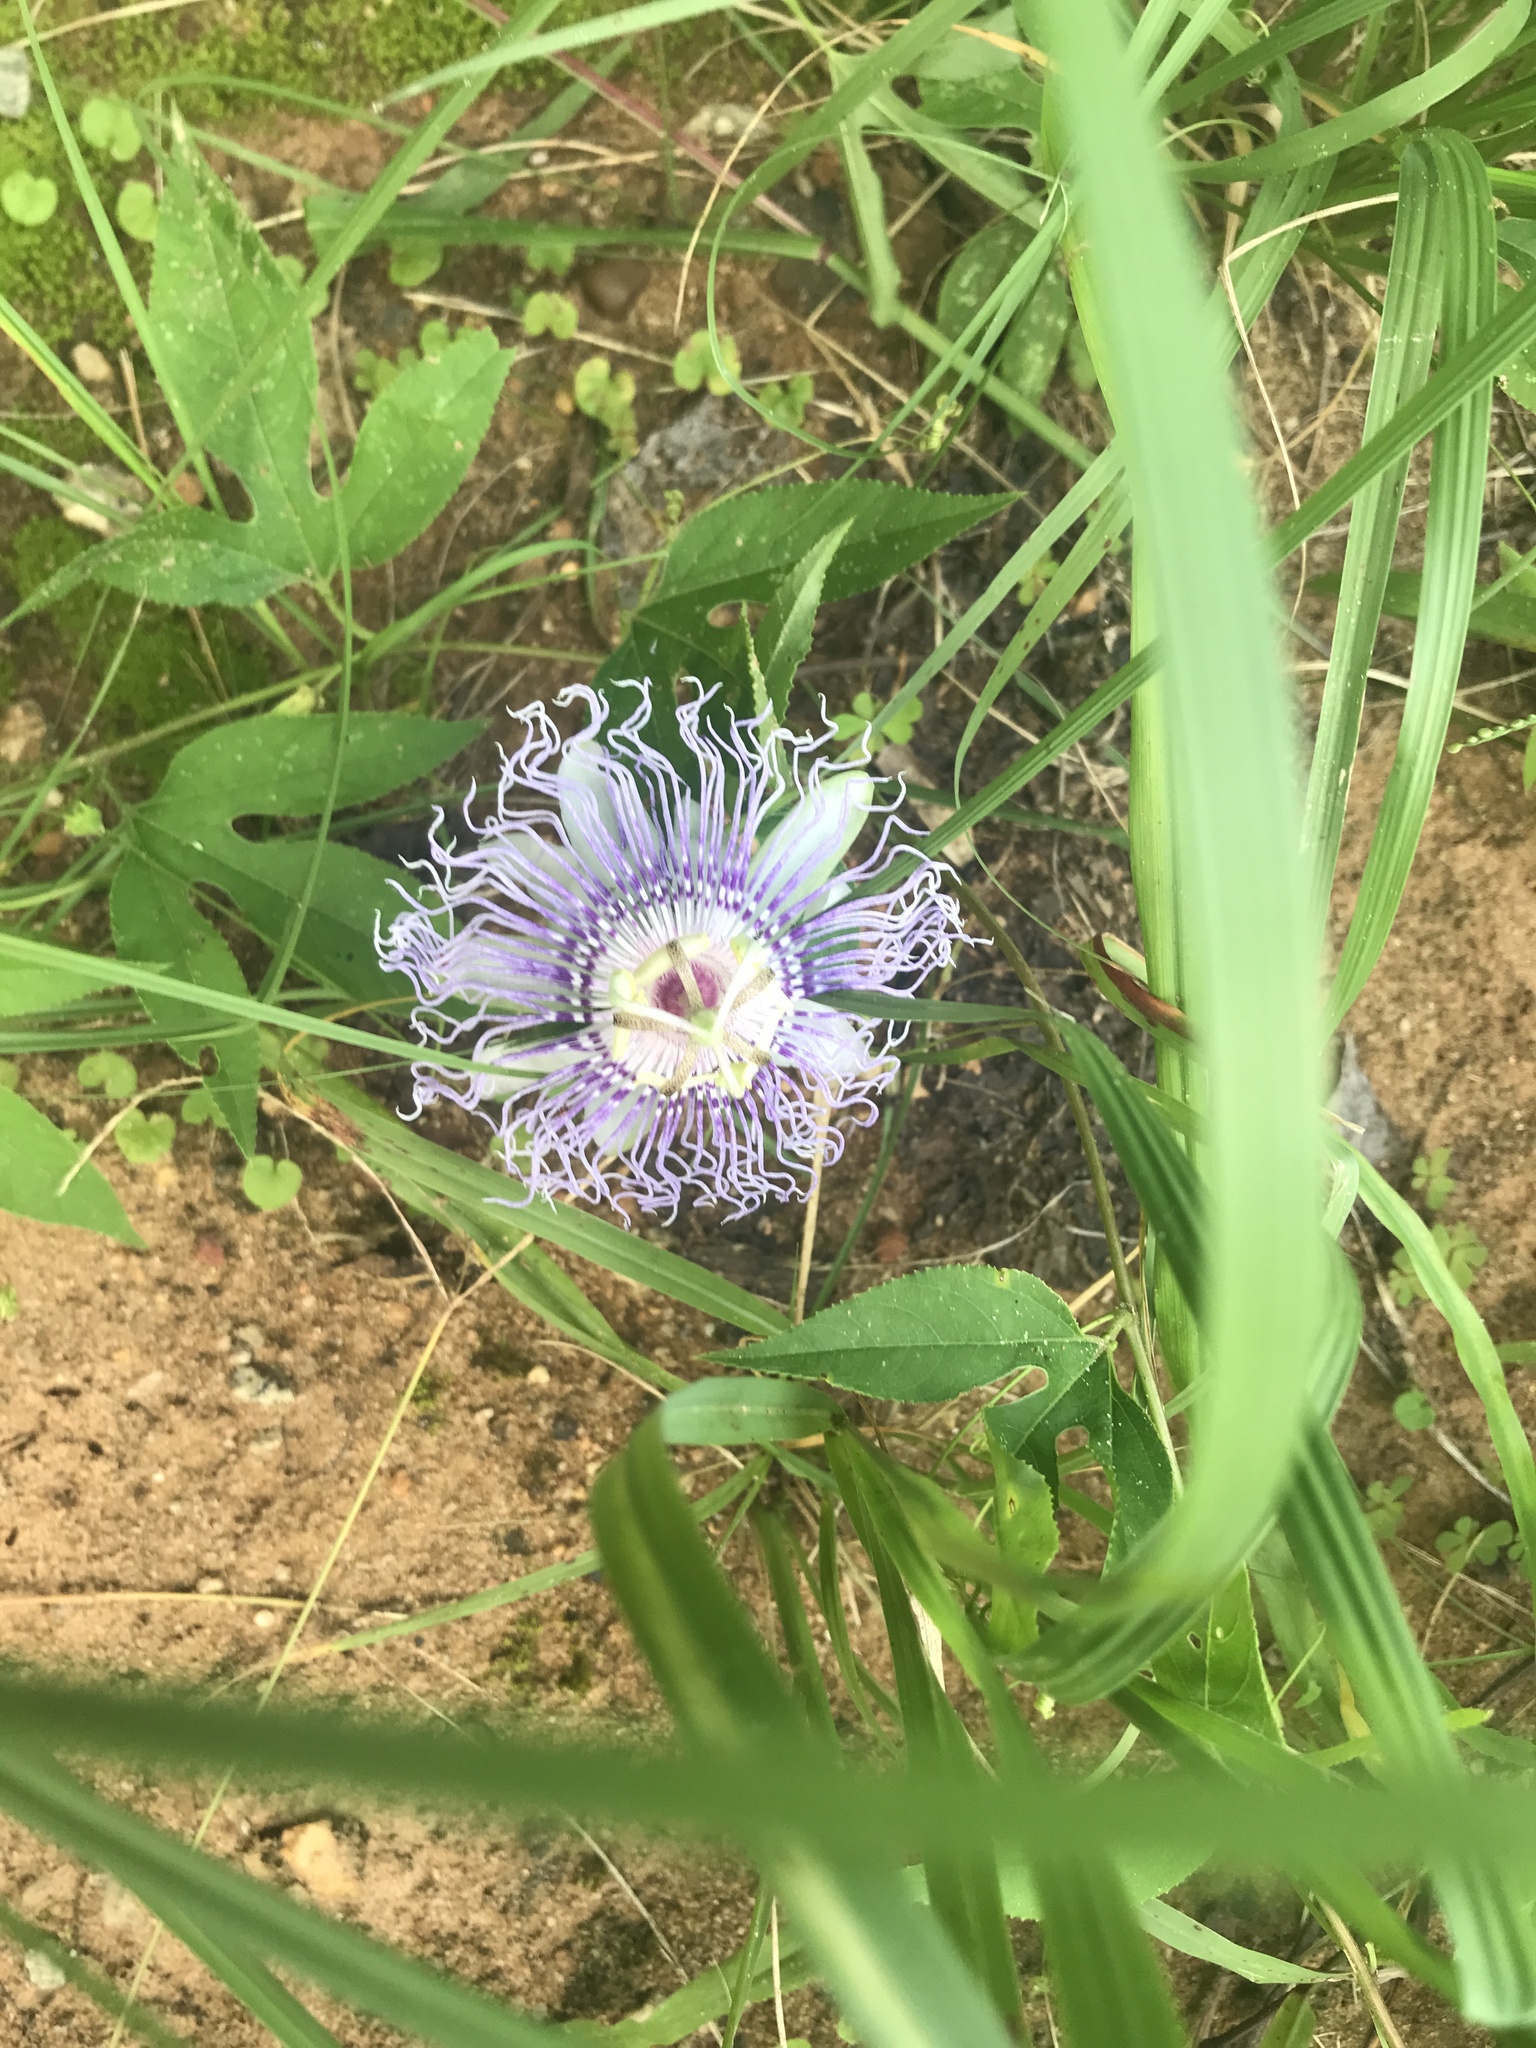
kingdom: Plantae
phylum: Tracheophyta
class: Magnoliopsida
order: Malpighiales
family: Passifloraceae
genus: Passiflora
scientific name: Passiflora incarnata
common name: Apricot-vine
